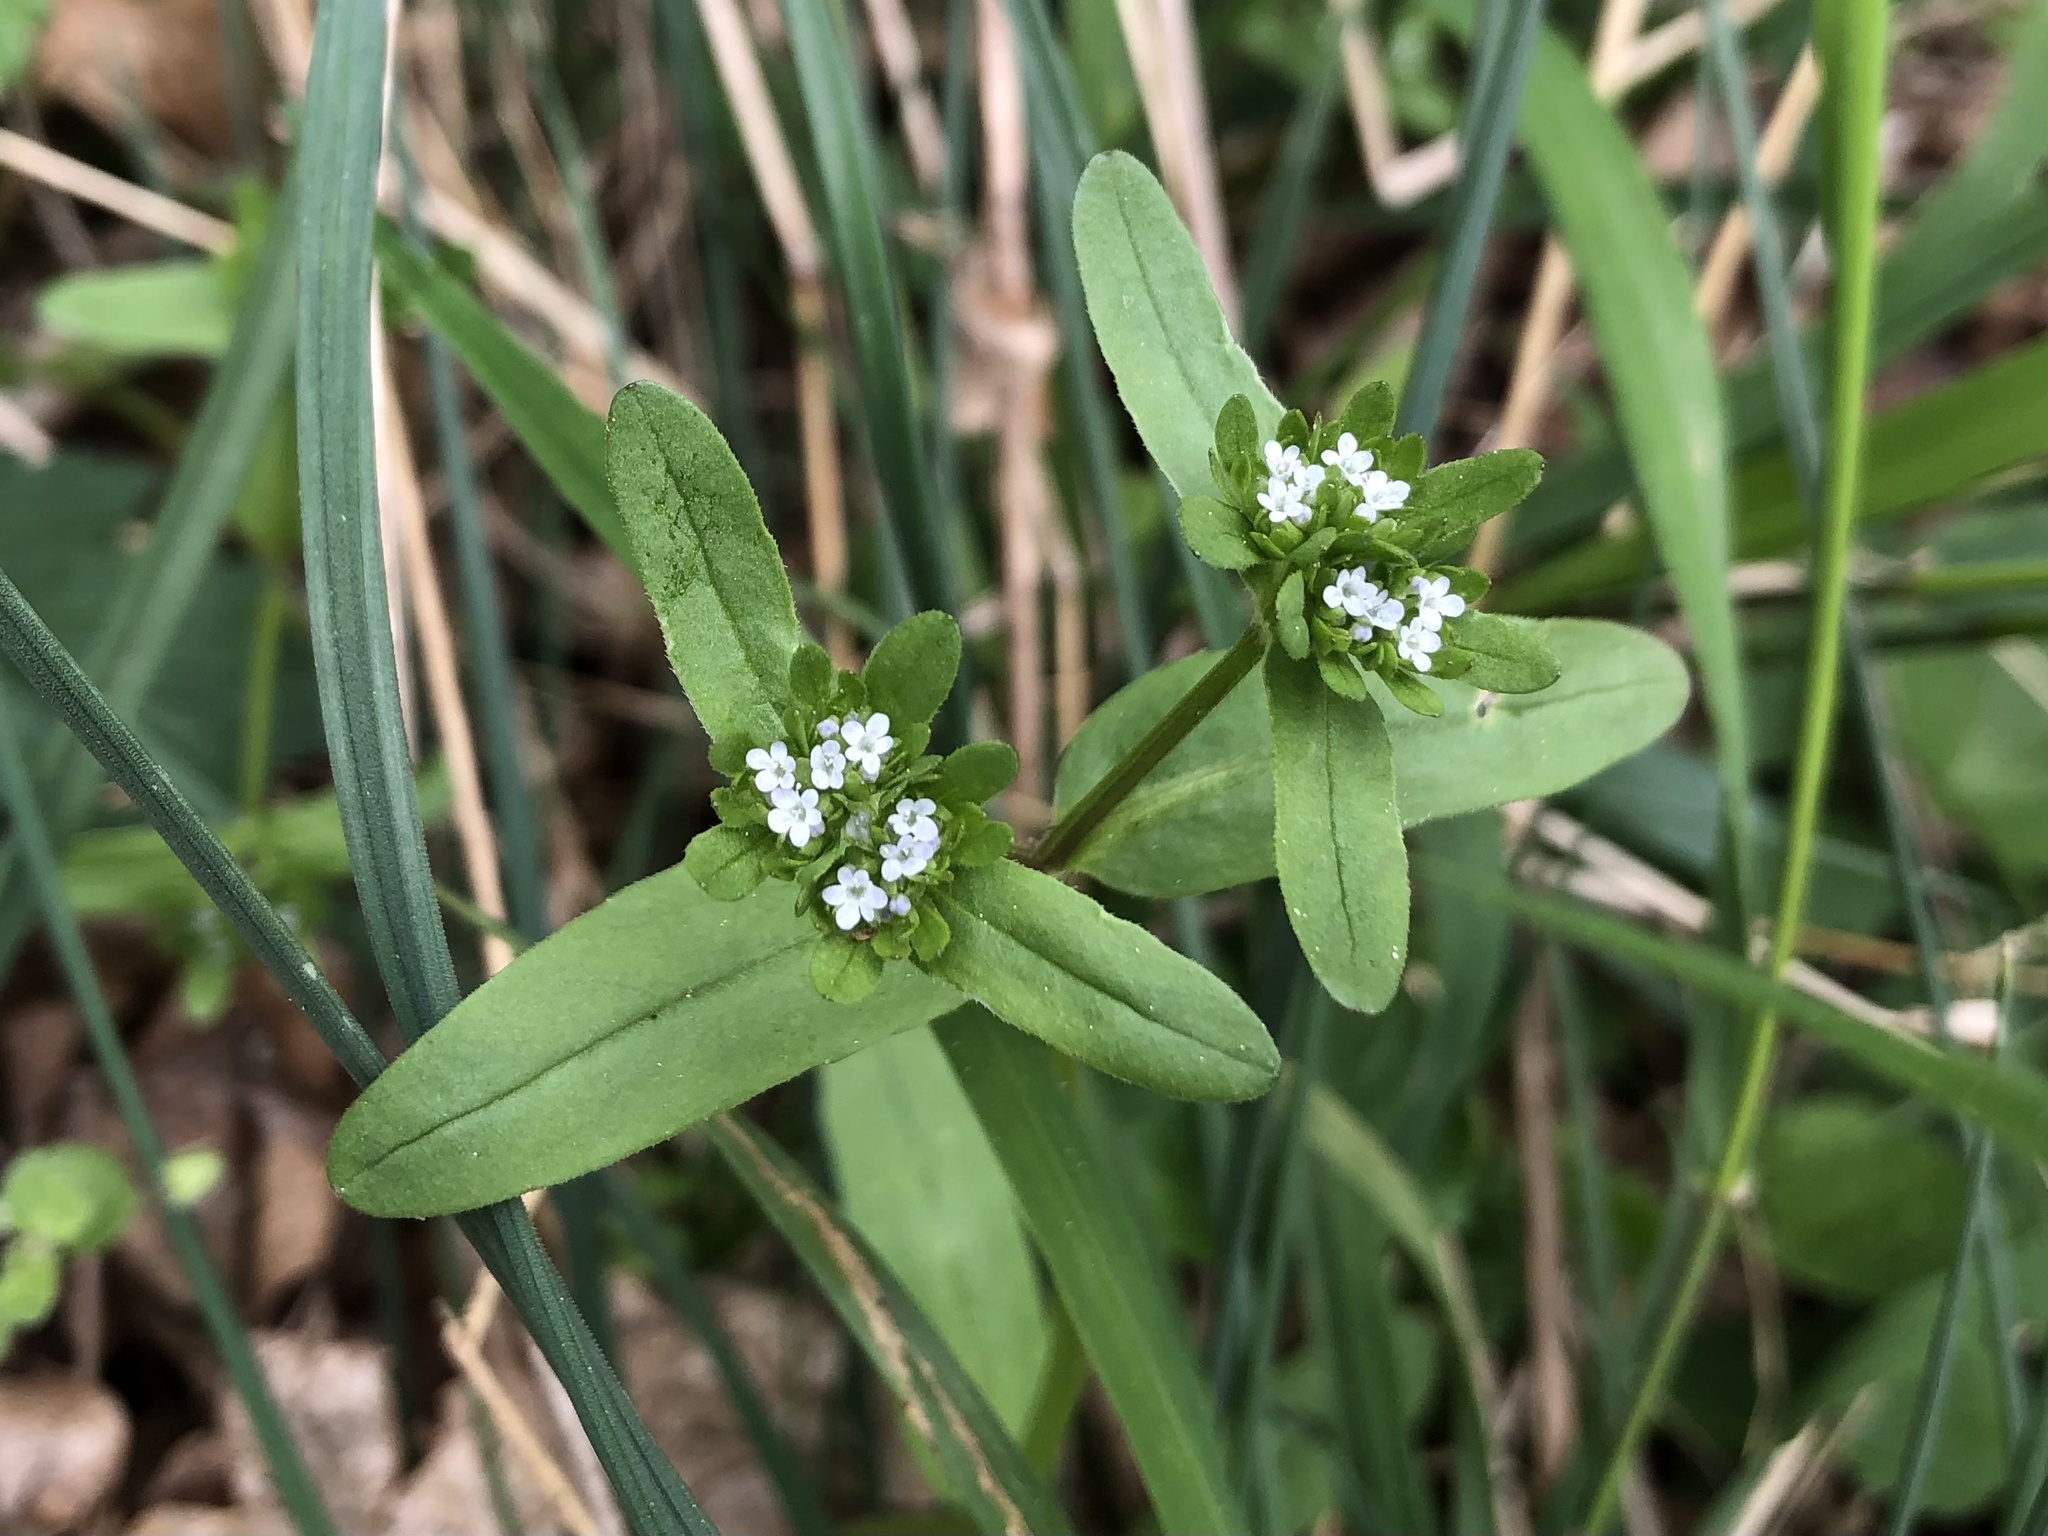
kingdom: Plantae
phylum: Tracheophyta
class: Magnoliopsida
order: Dipsacales
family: Caprifoliaceae
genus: Valerianella
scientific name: Valerianella locusta
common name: Common cornsalad
